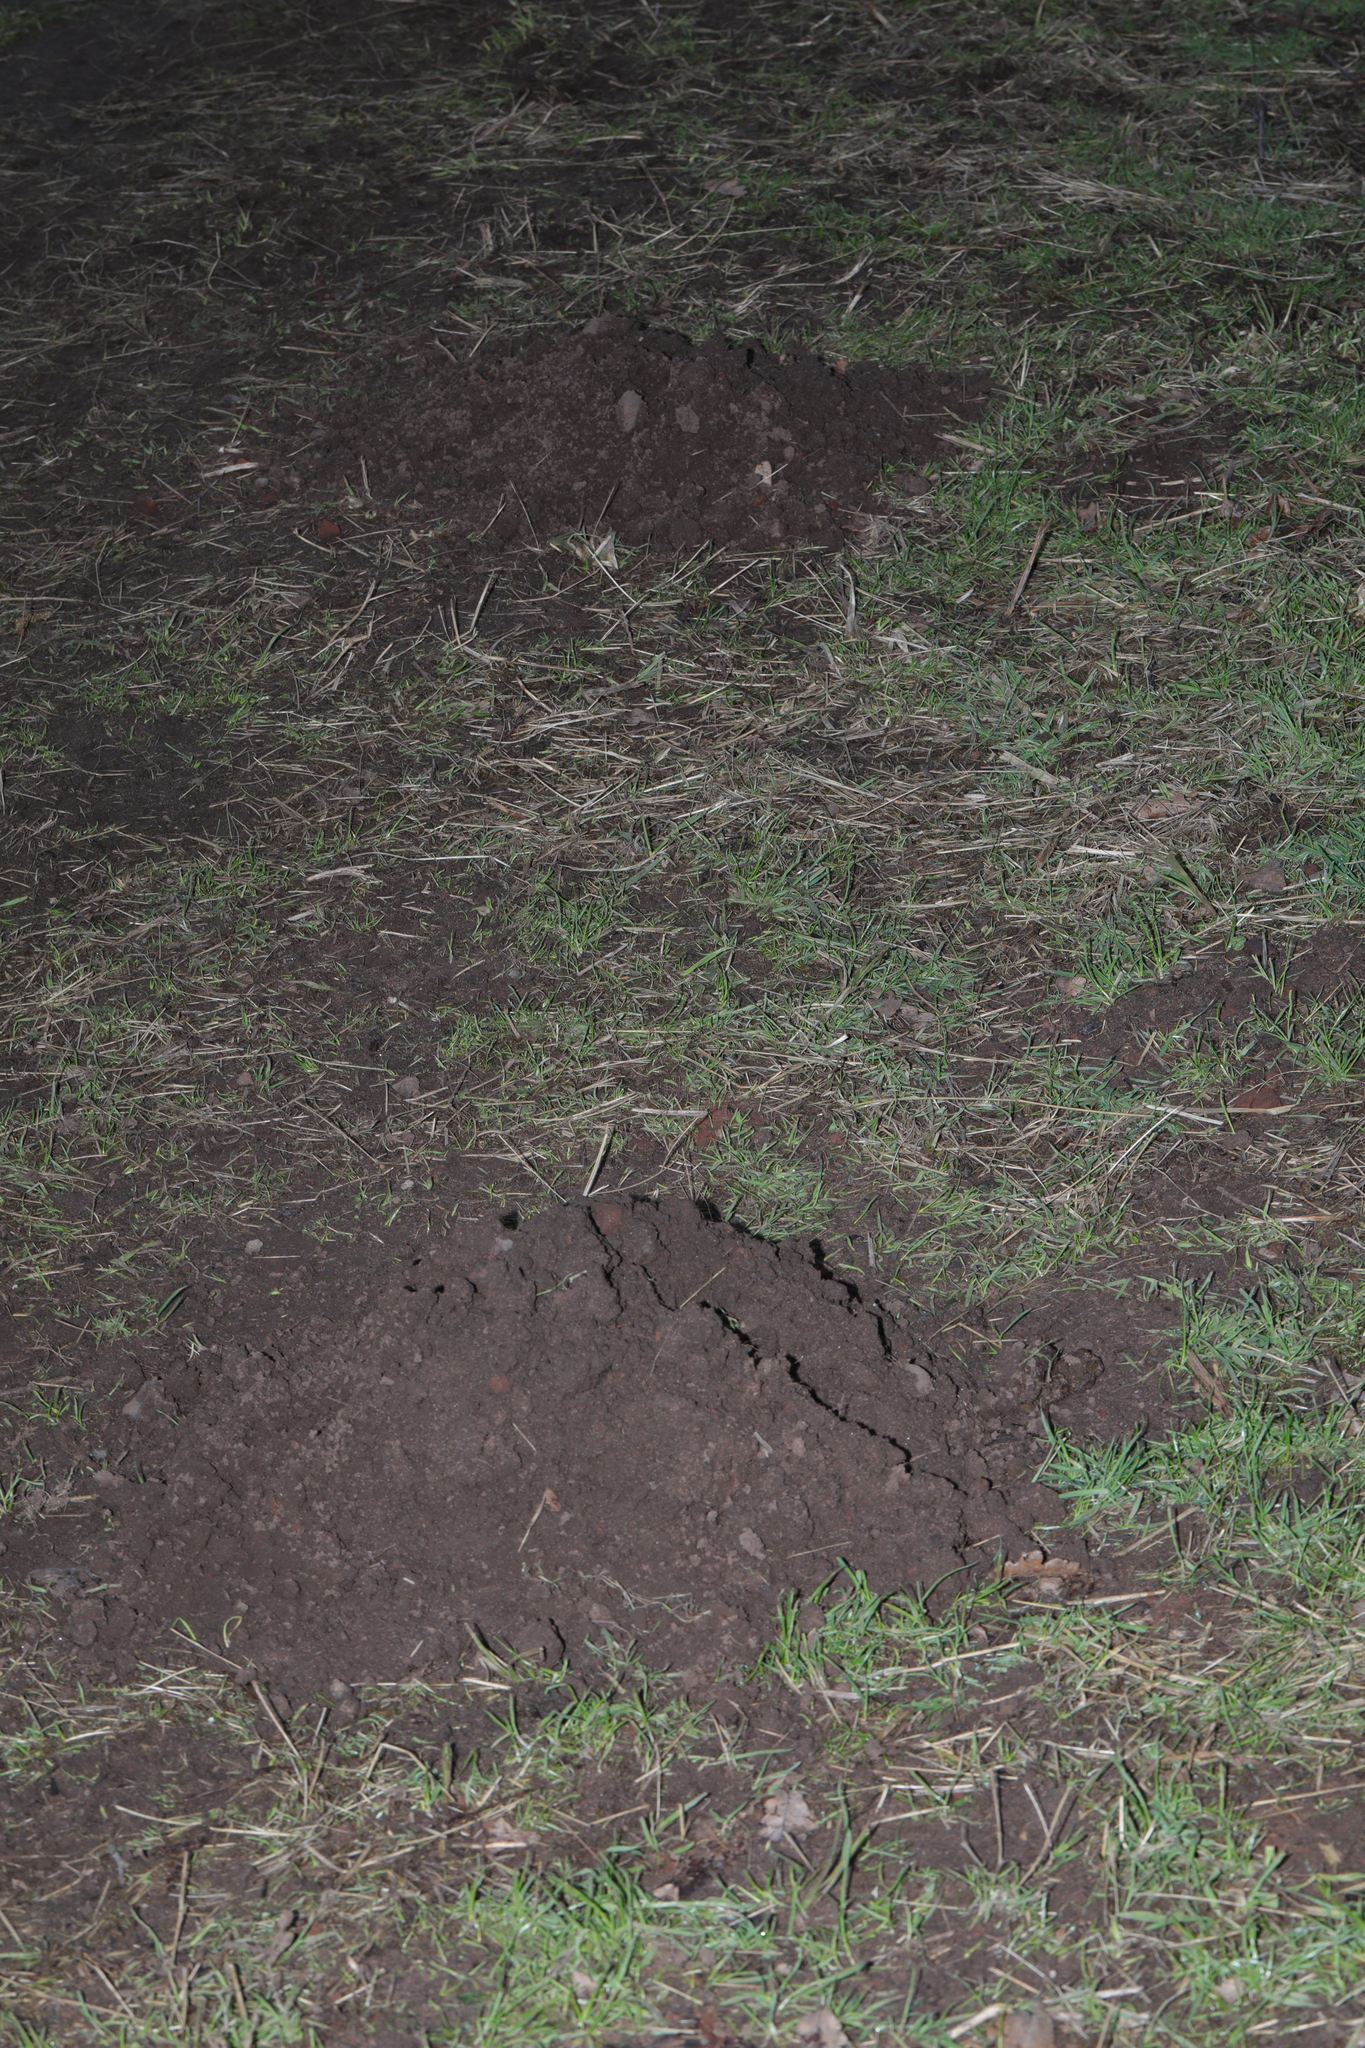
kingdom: Animalia
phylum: Chordata
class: Mammalia
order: Soricomorpha
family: Talpidae
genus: Talpa
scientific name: Talpa europaea
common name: European mole
